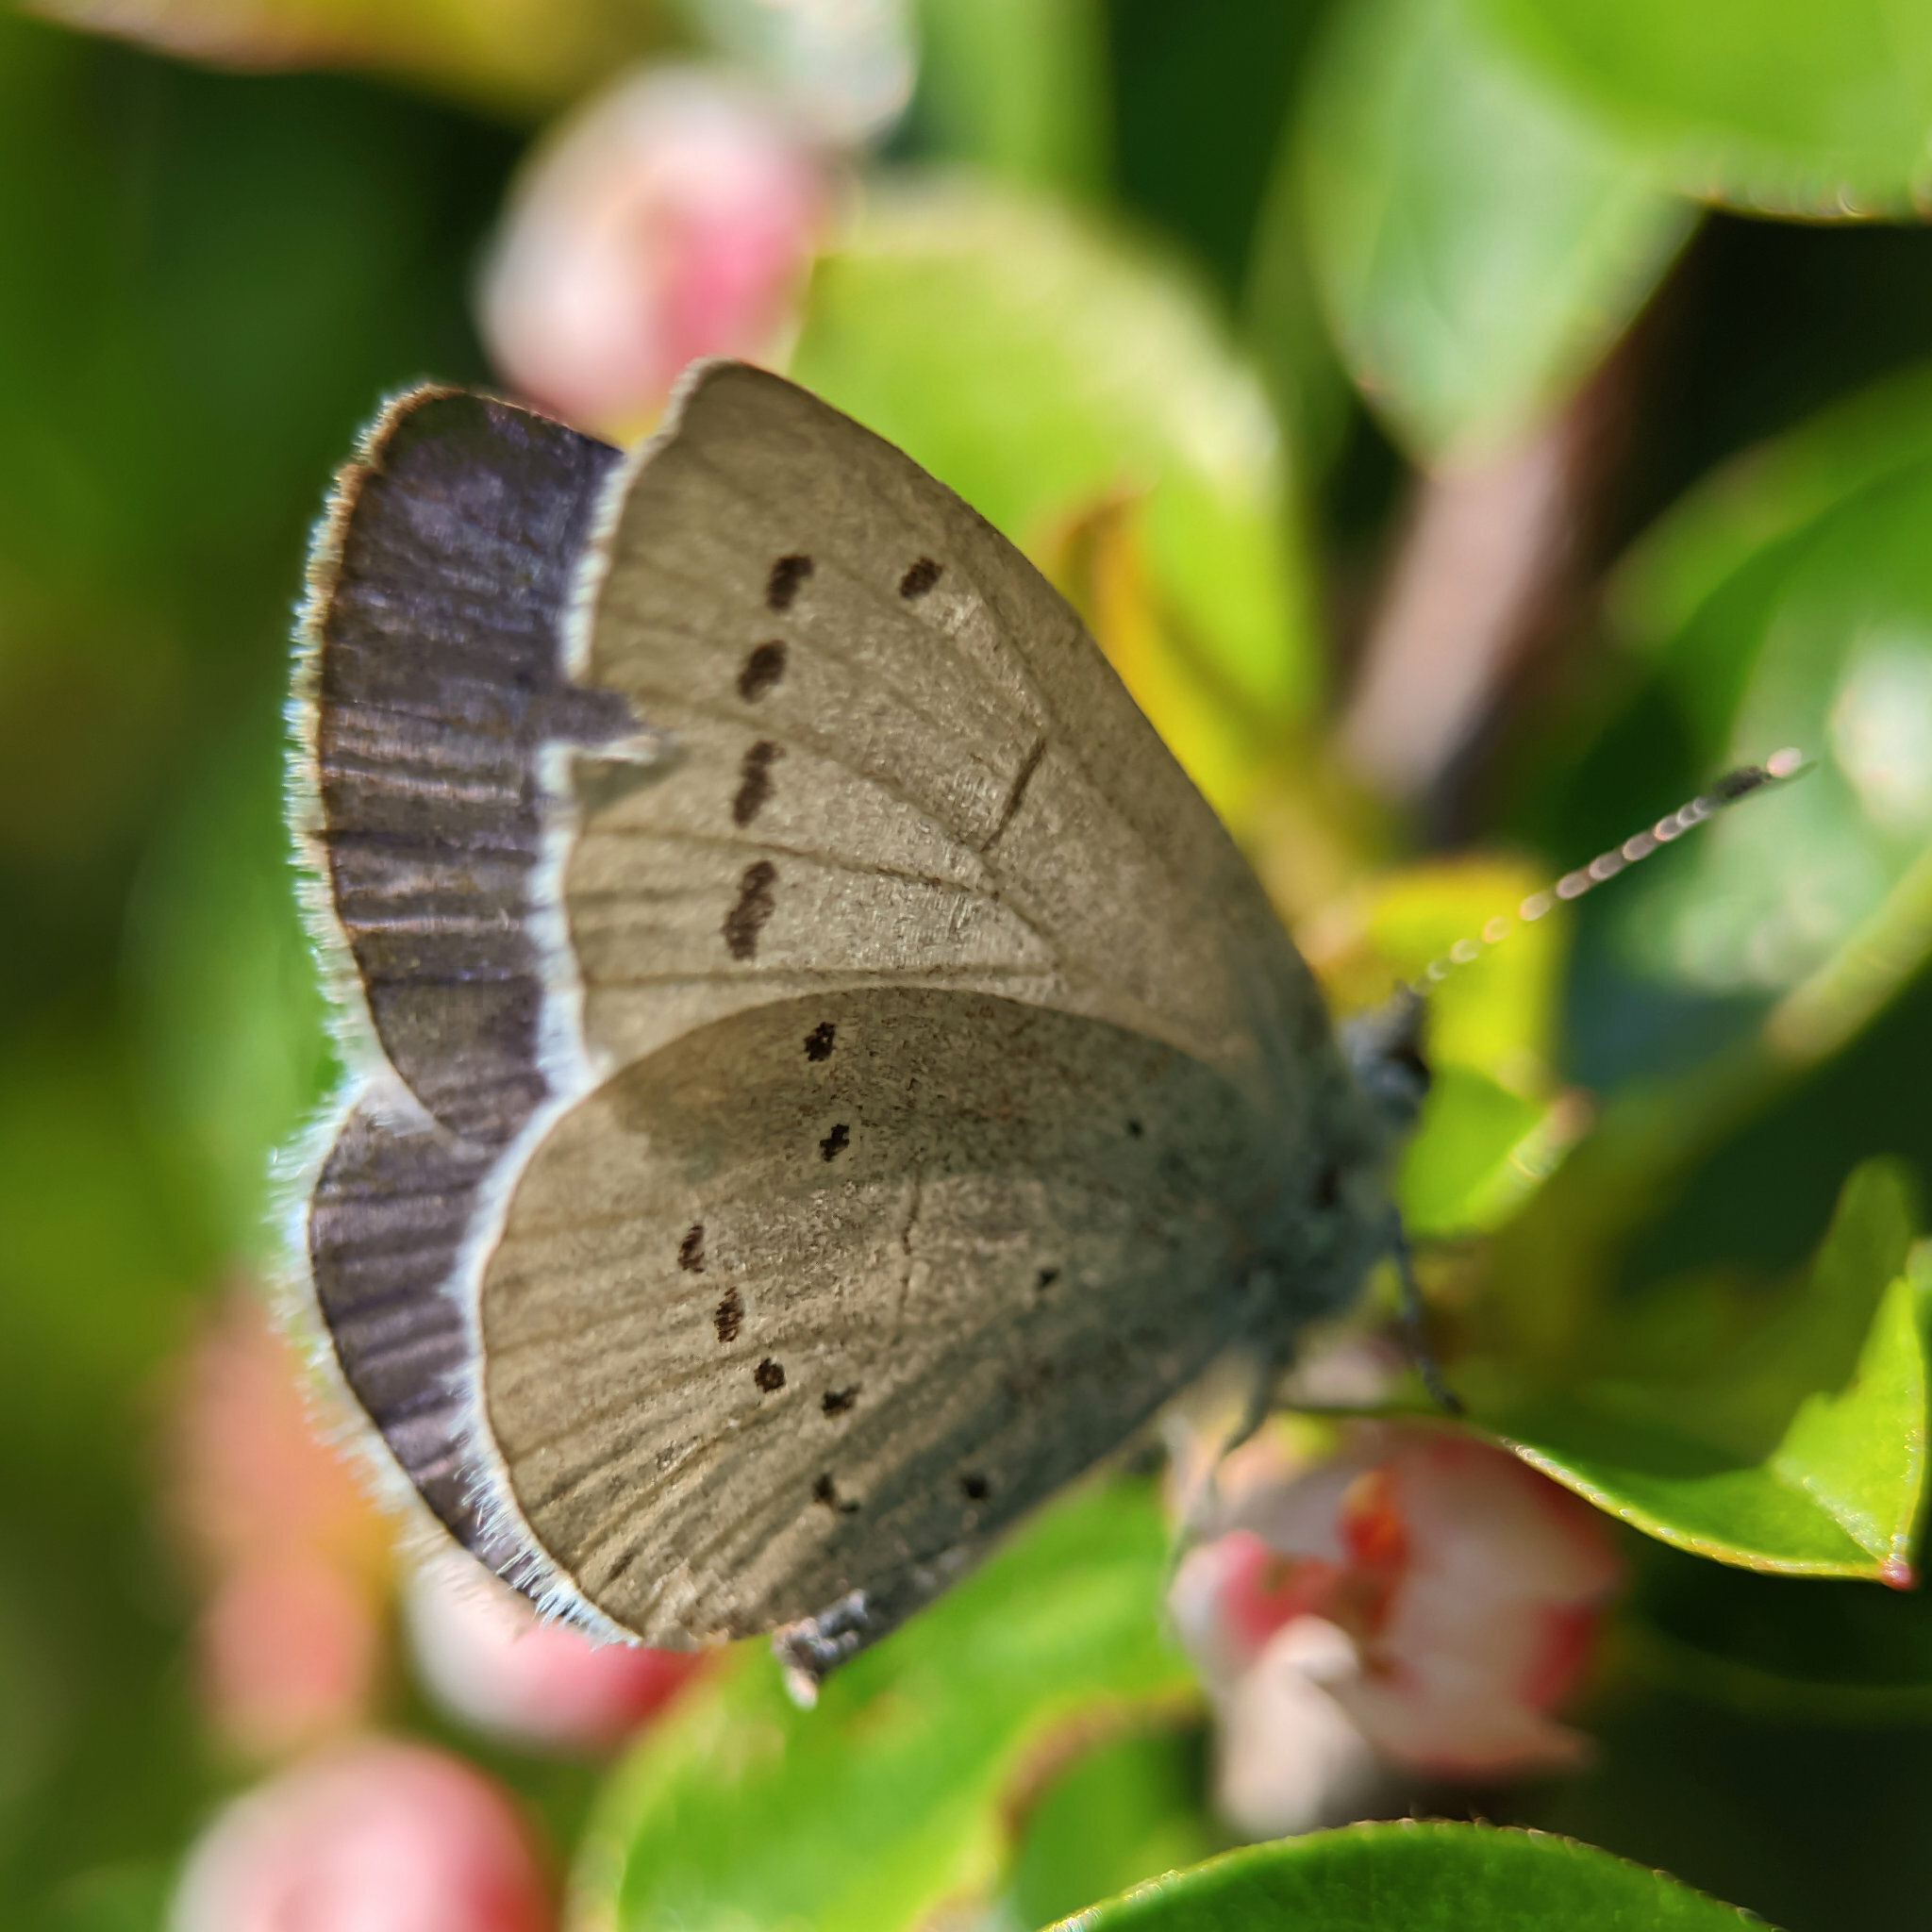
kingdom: Animalia
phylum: Arthropoda
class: Insecta
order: Lepidoptera
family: Lycaenidae
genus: Celastrina
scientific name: Celastrina argiolus
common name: Holly blue
